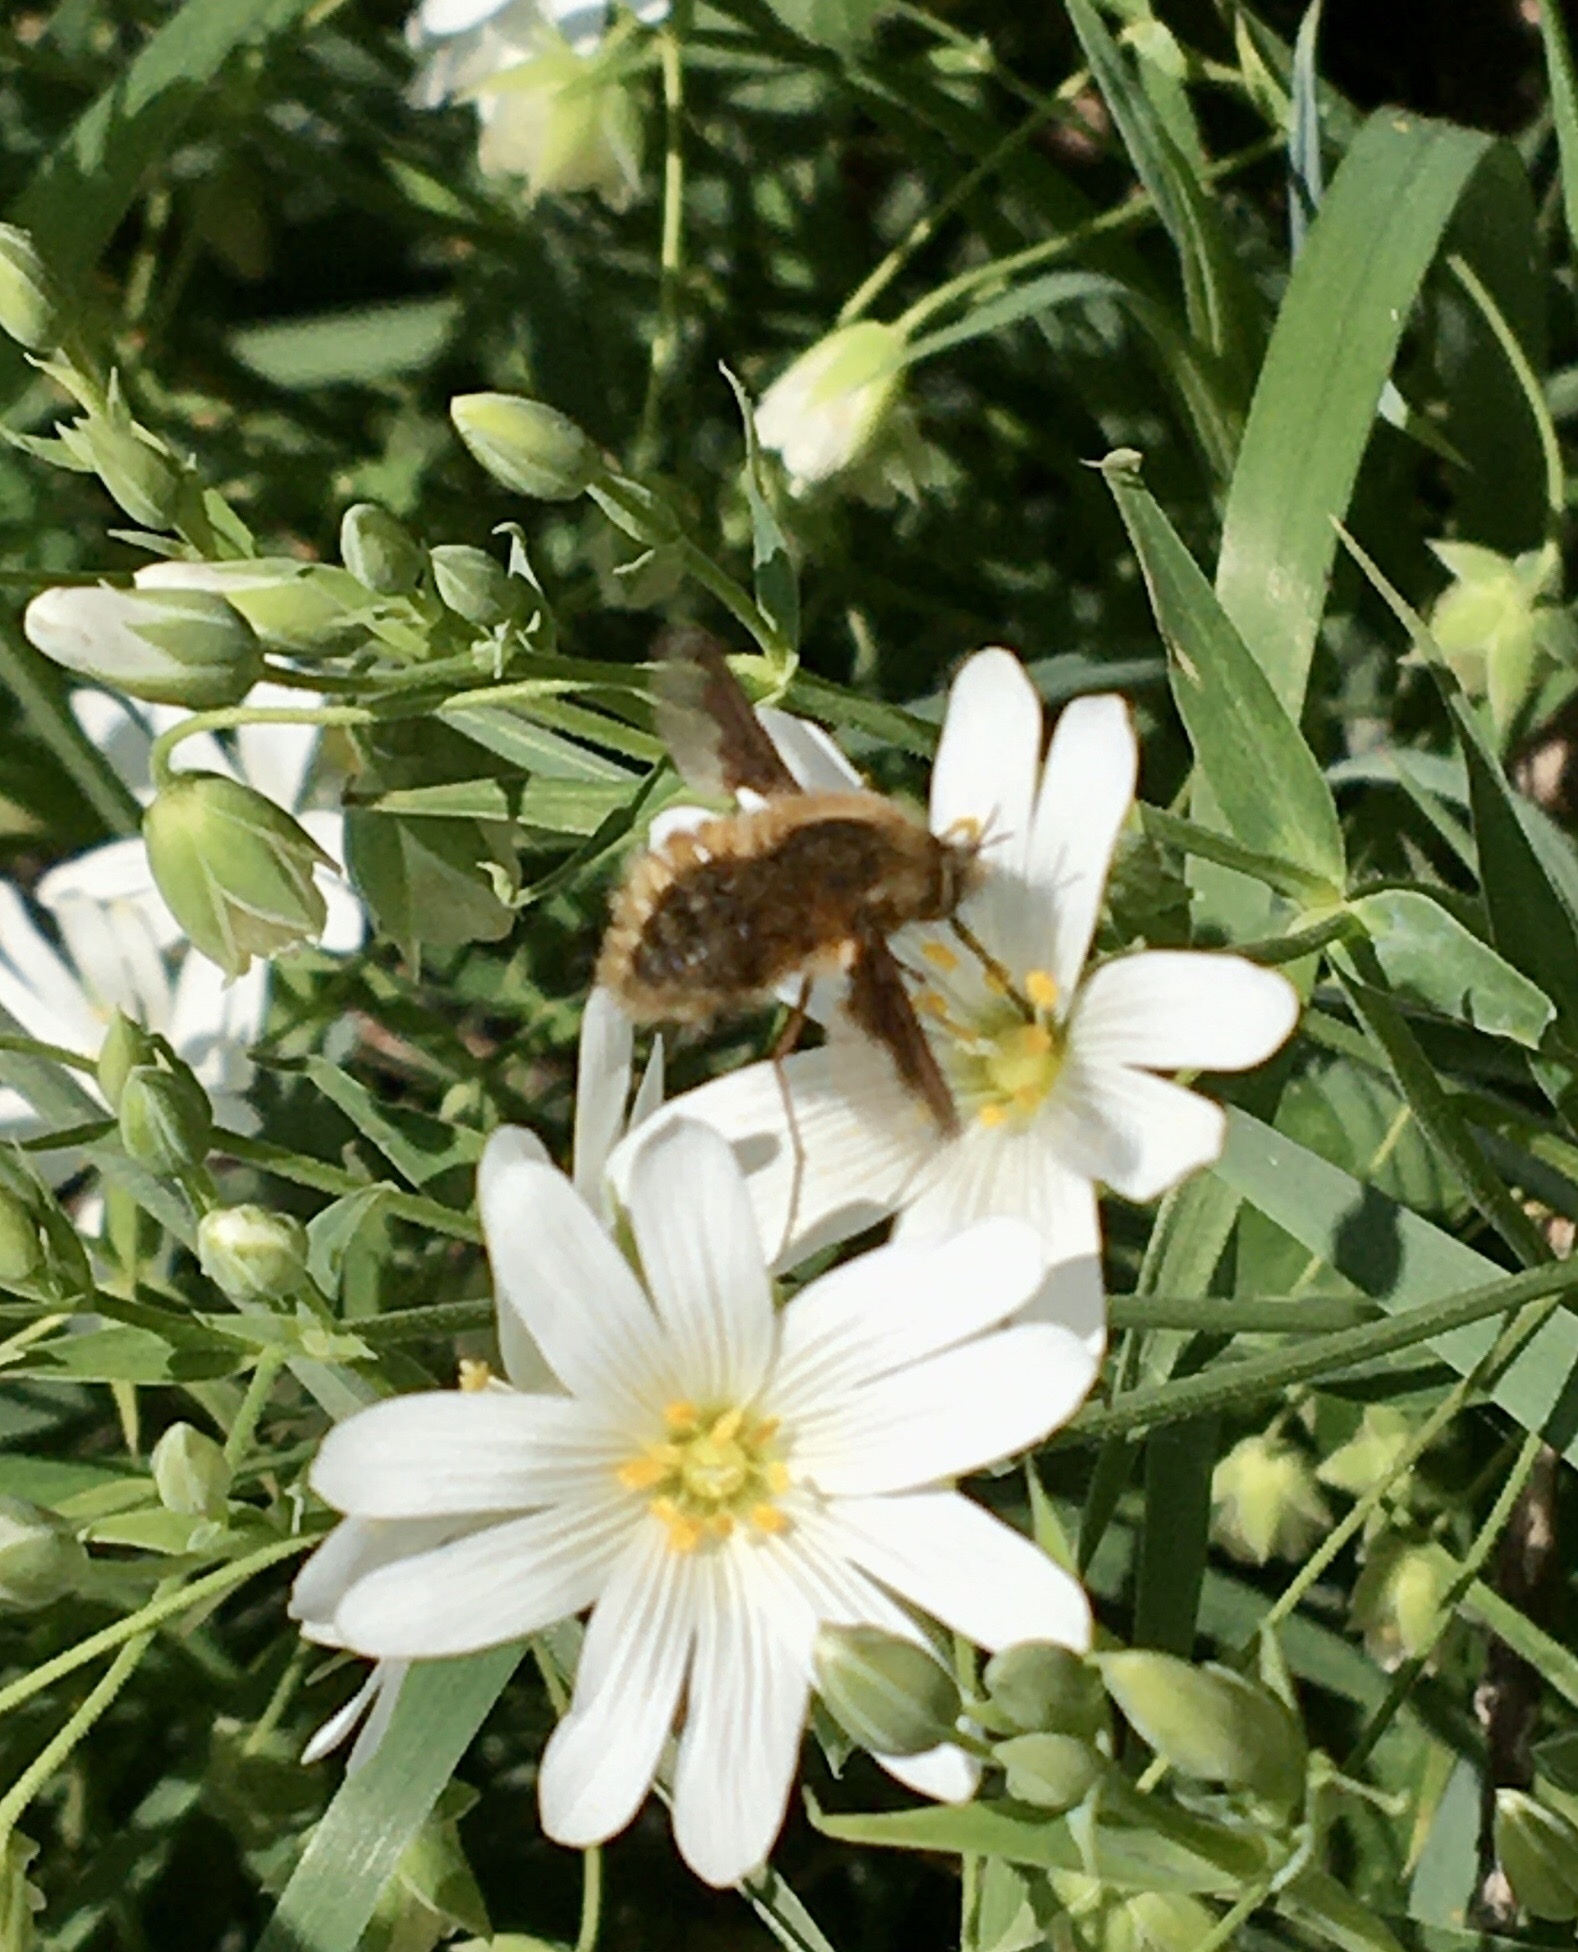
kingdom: Animalia
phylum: Arthropoda
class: Insecta
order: Diptera
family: Bombyliidae
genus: Bombylius
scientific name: Bombylius major
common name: Bee fly
